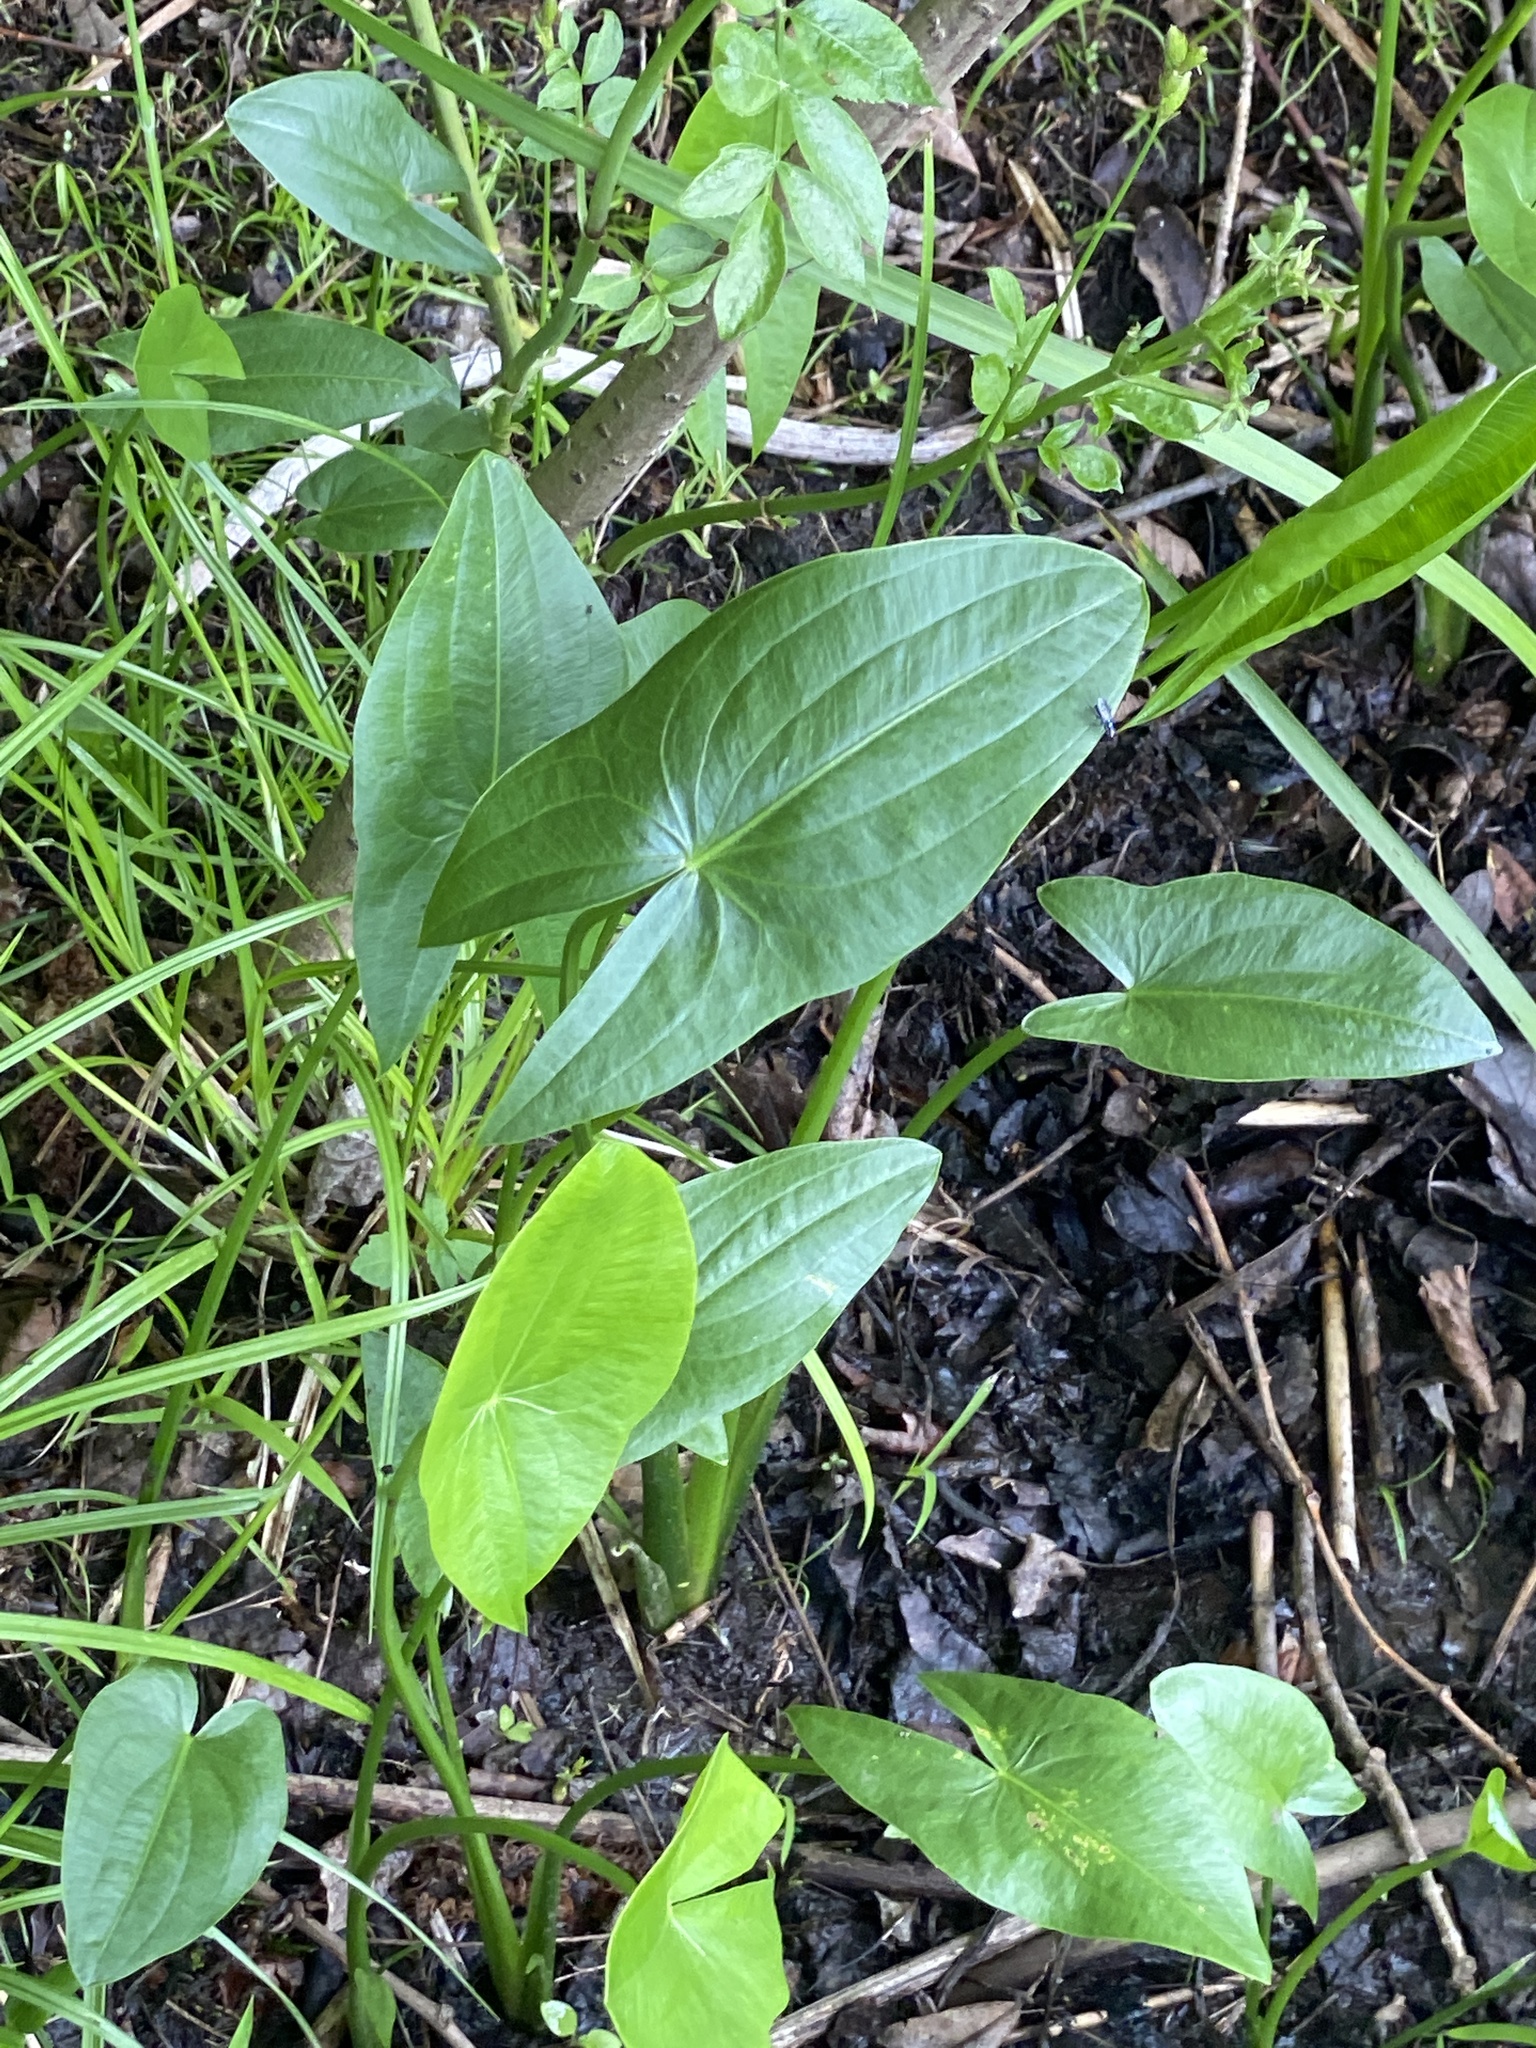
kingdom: Plantae
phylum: Tracheophyta
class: Liliopsida
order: Alismatales
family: Alismataceae
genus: Sagittaria
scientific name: Sagittaria latifolia
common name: Duck-potato
